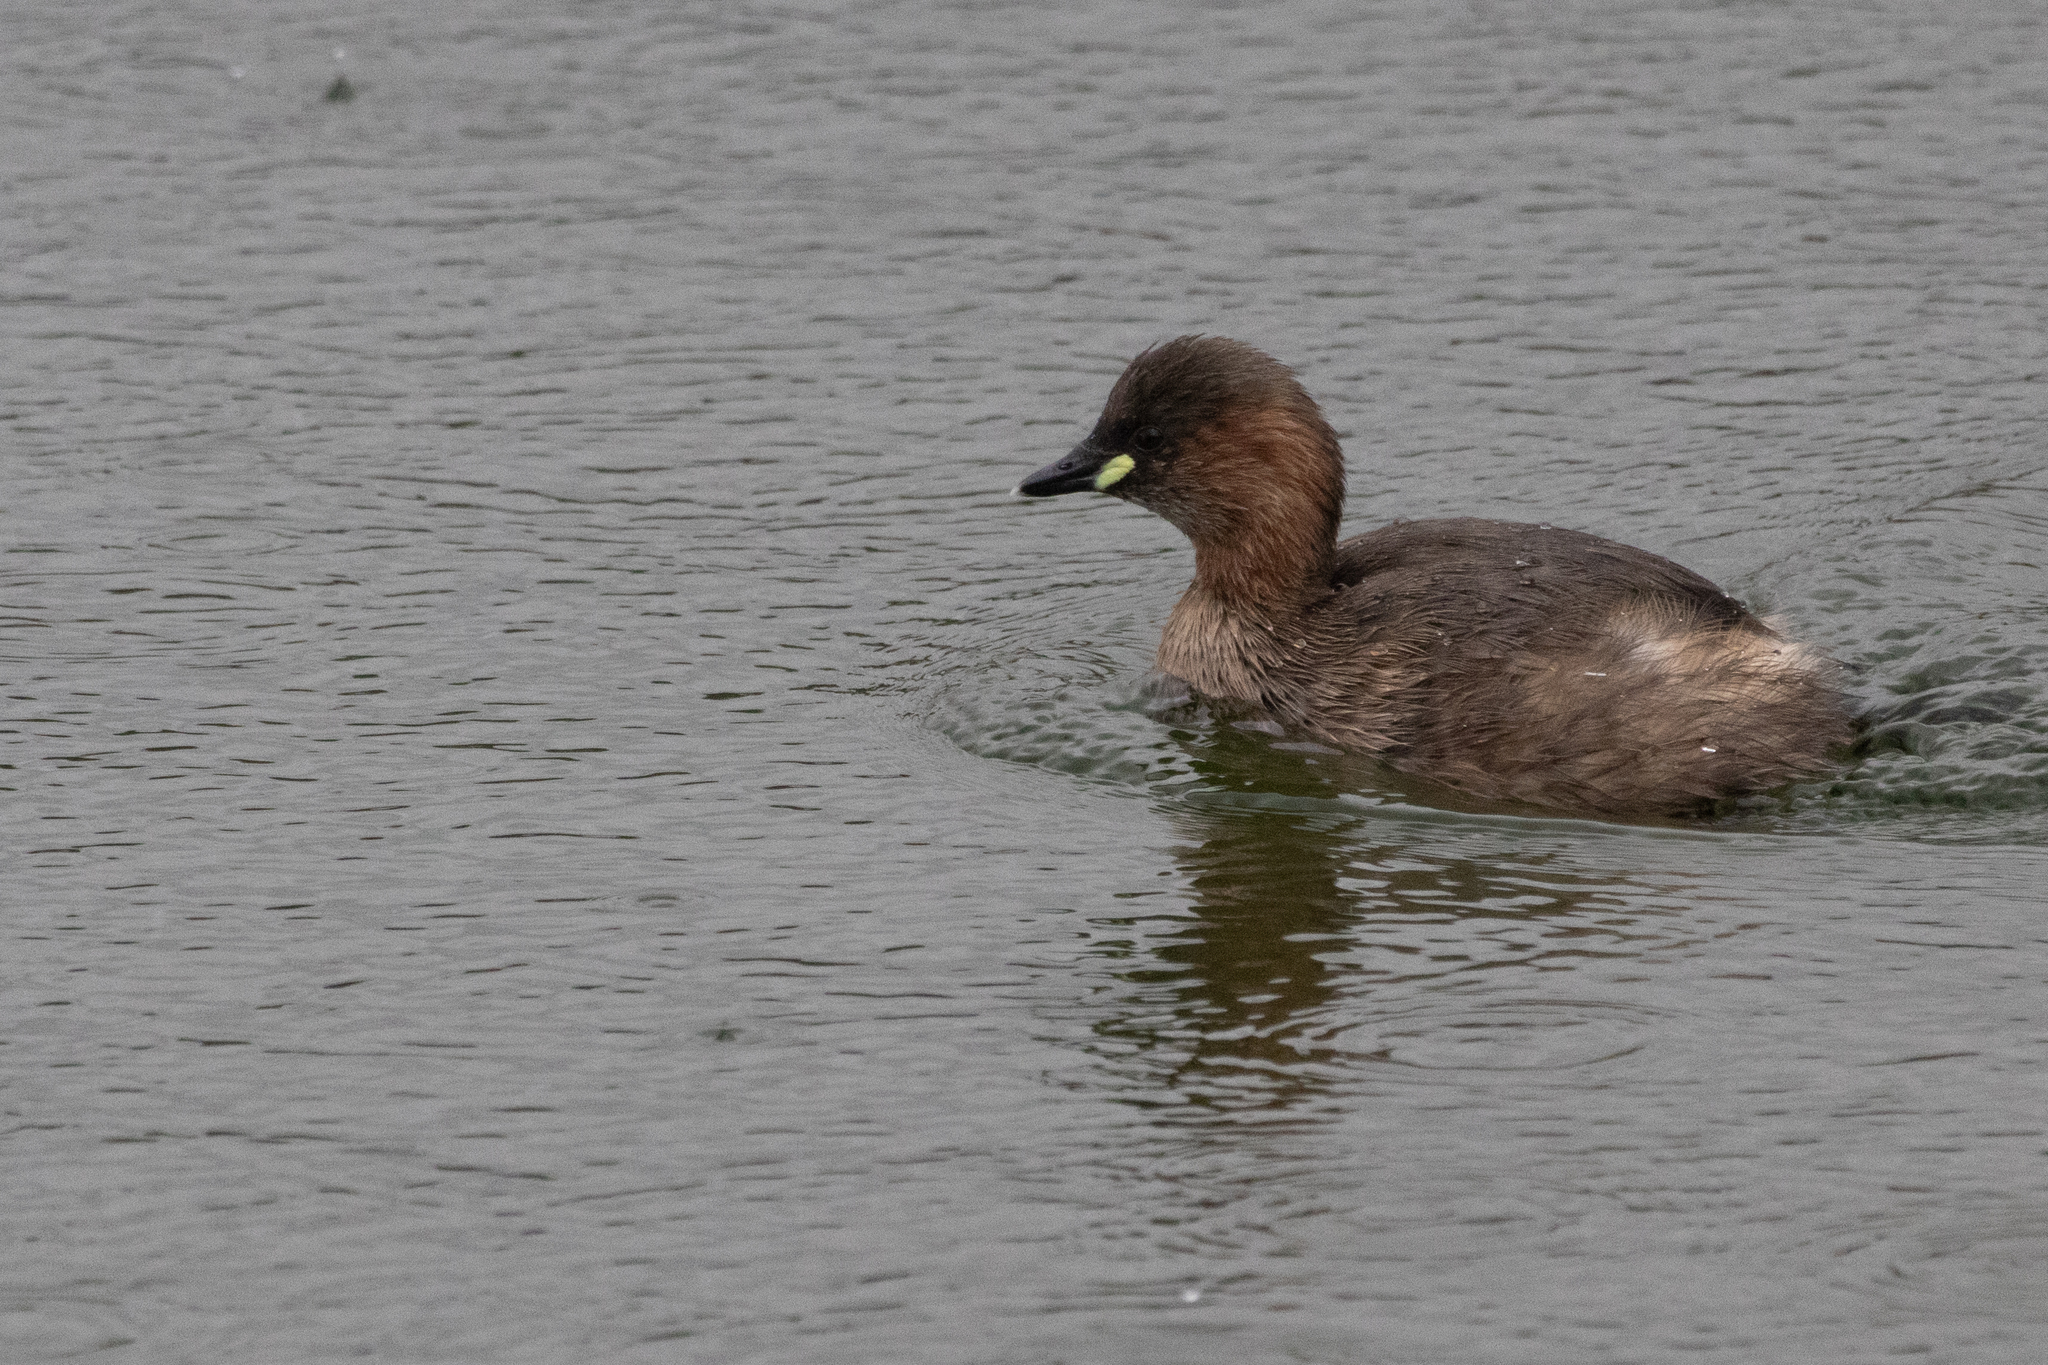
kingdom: Animalia
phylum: Chordata
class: Aves
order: Podicipediformes
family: Podicipedidae
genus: Tachybaptus
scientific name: Tachybaptus ruficollis
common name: Little grebe
